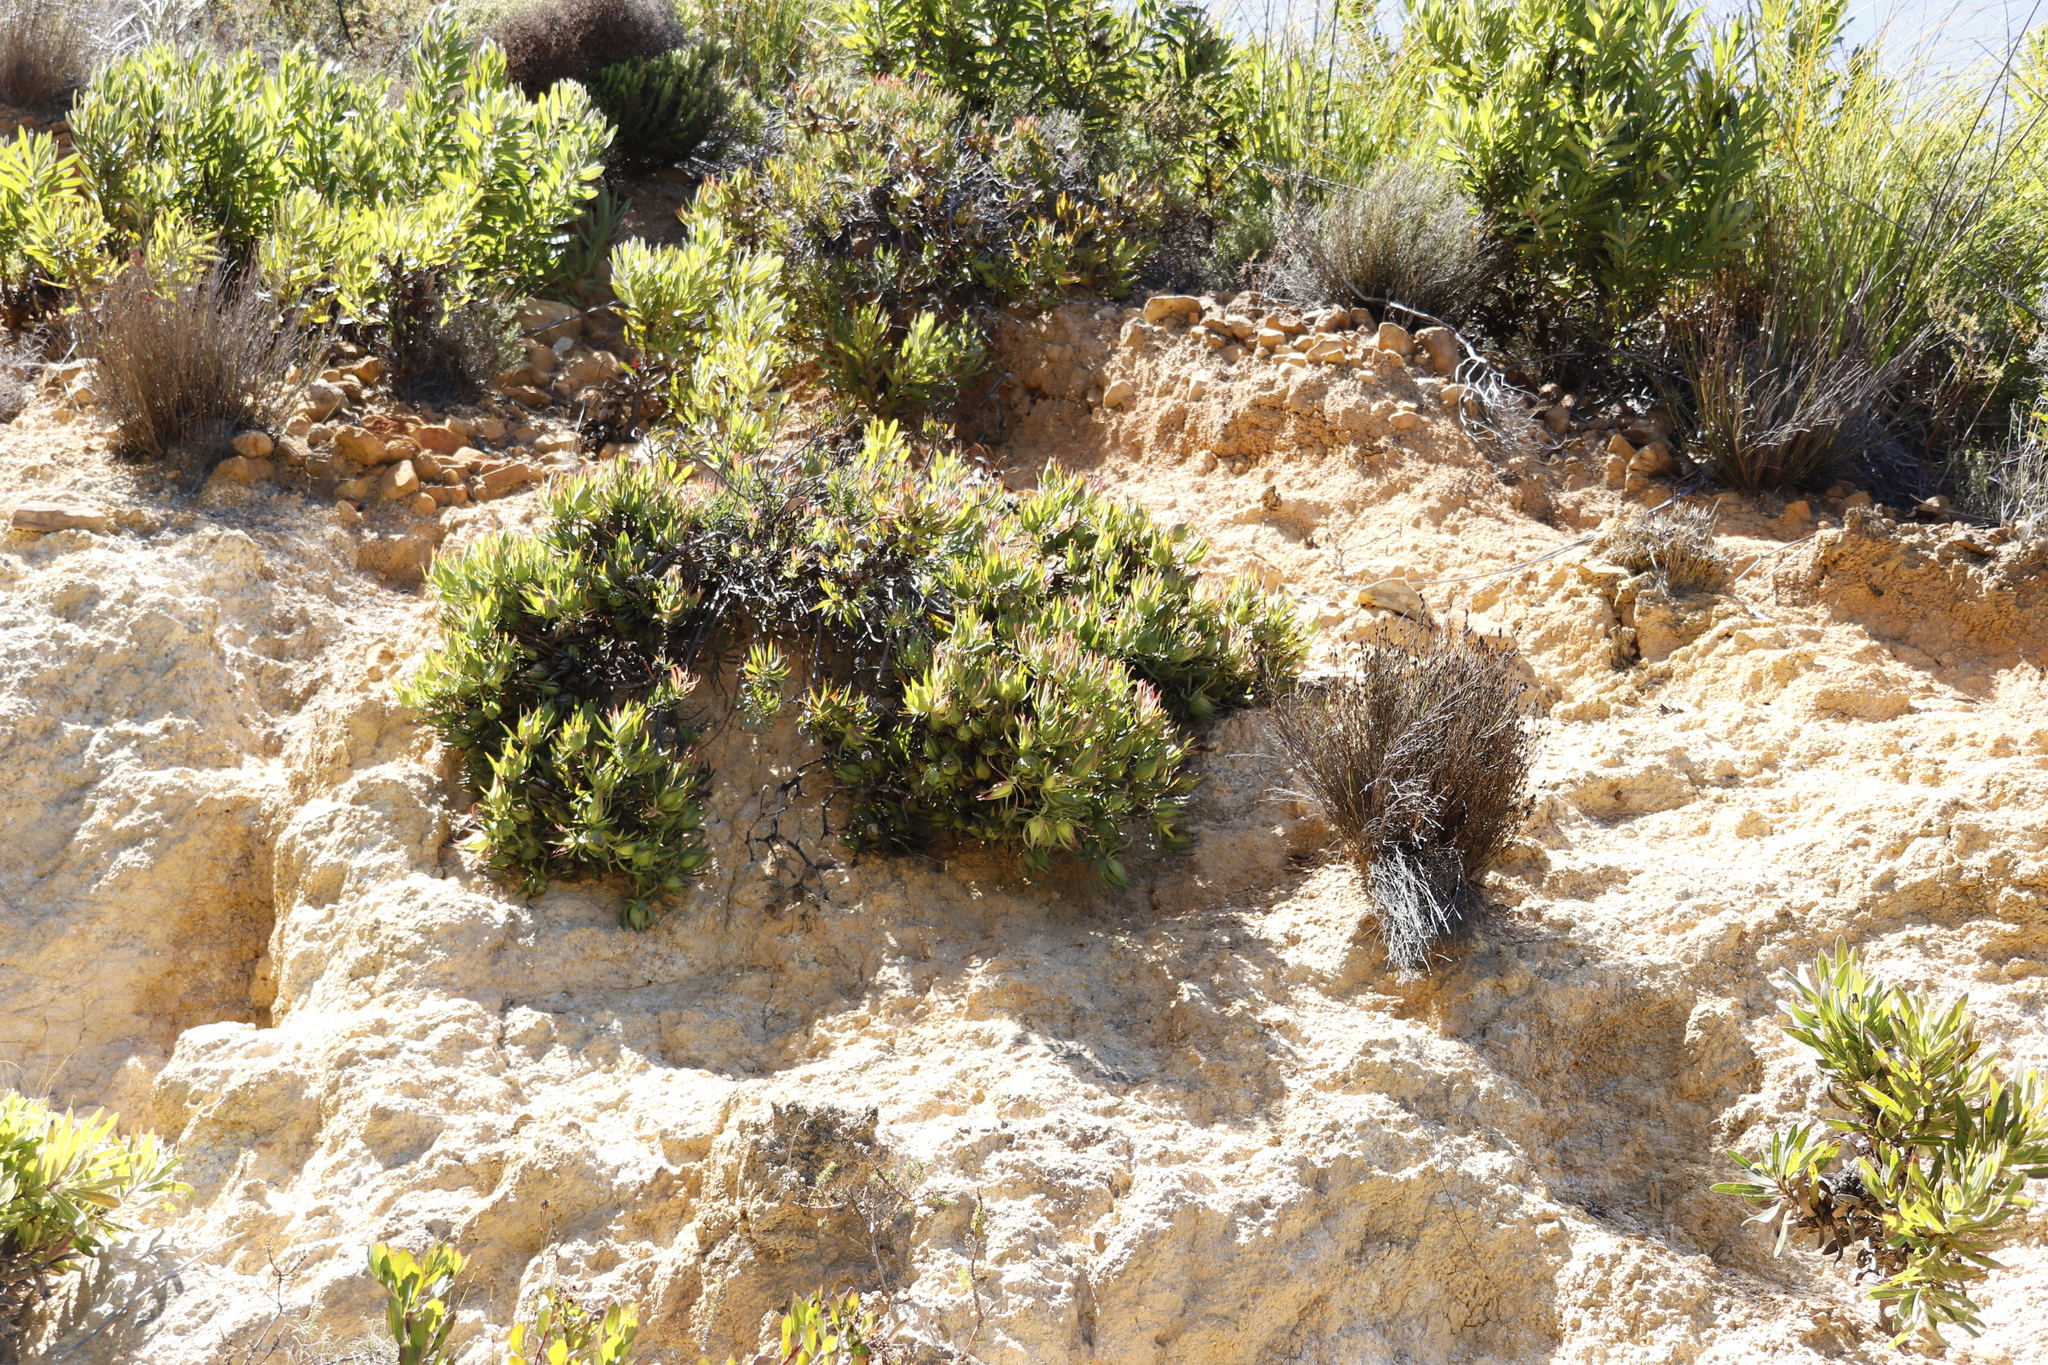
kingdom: Plantae
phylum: Tracheophyta
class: Magnoliopsida
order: Proteales
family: Proteaceae
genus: Leucadendron
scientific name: Leucadendron salignum
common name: Common sunshine conebush
